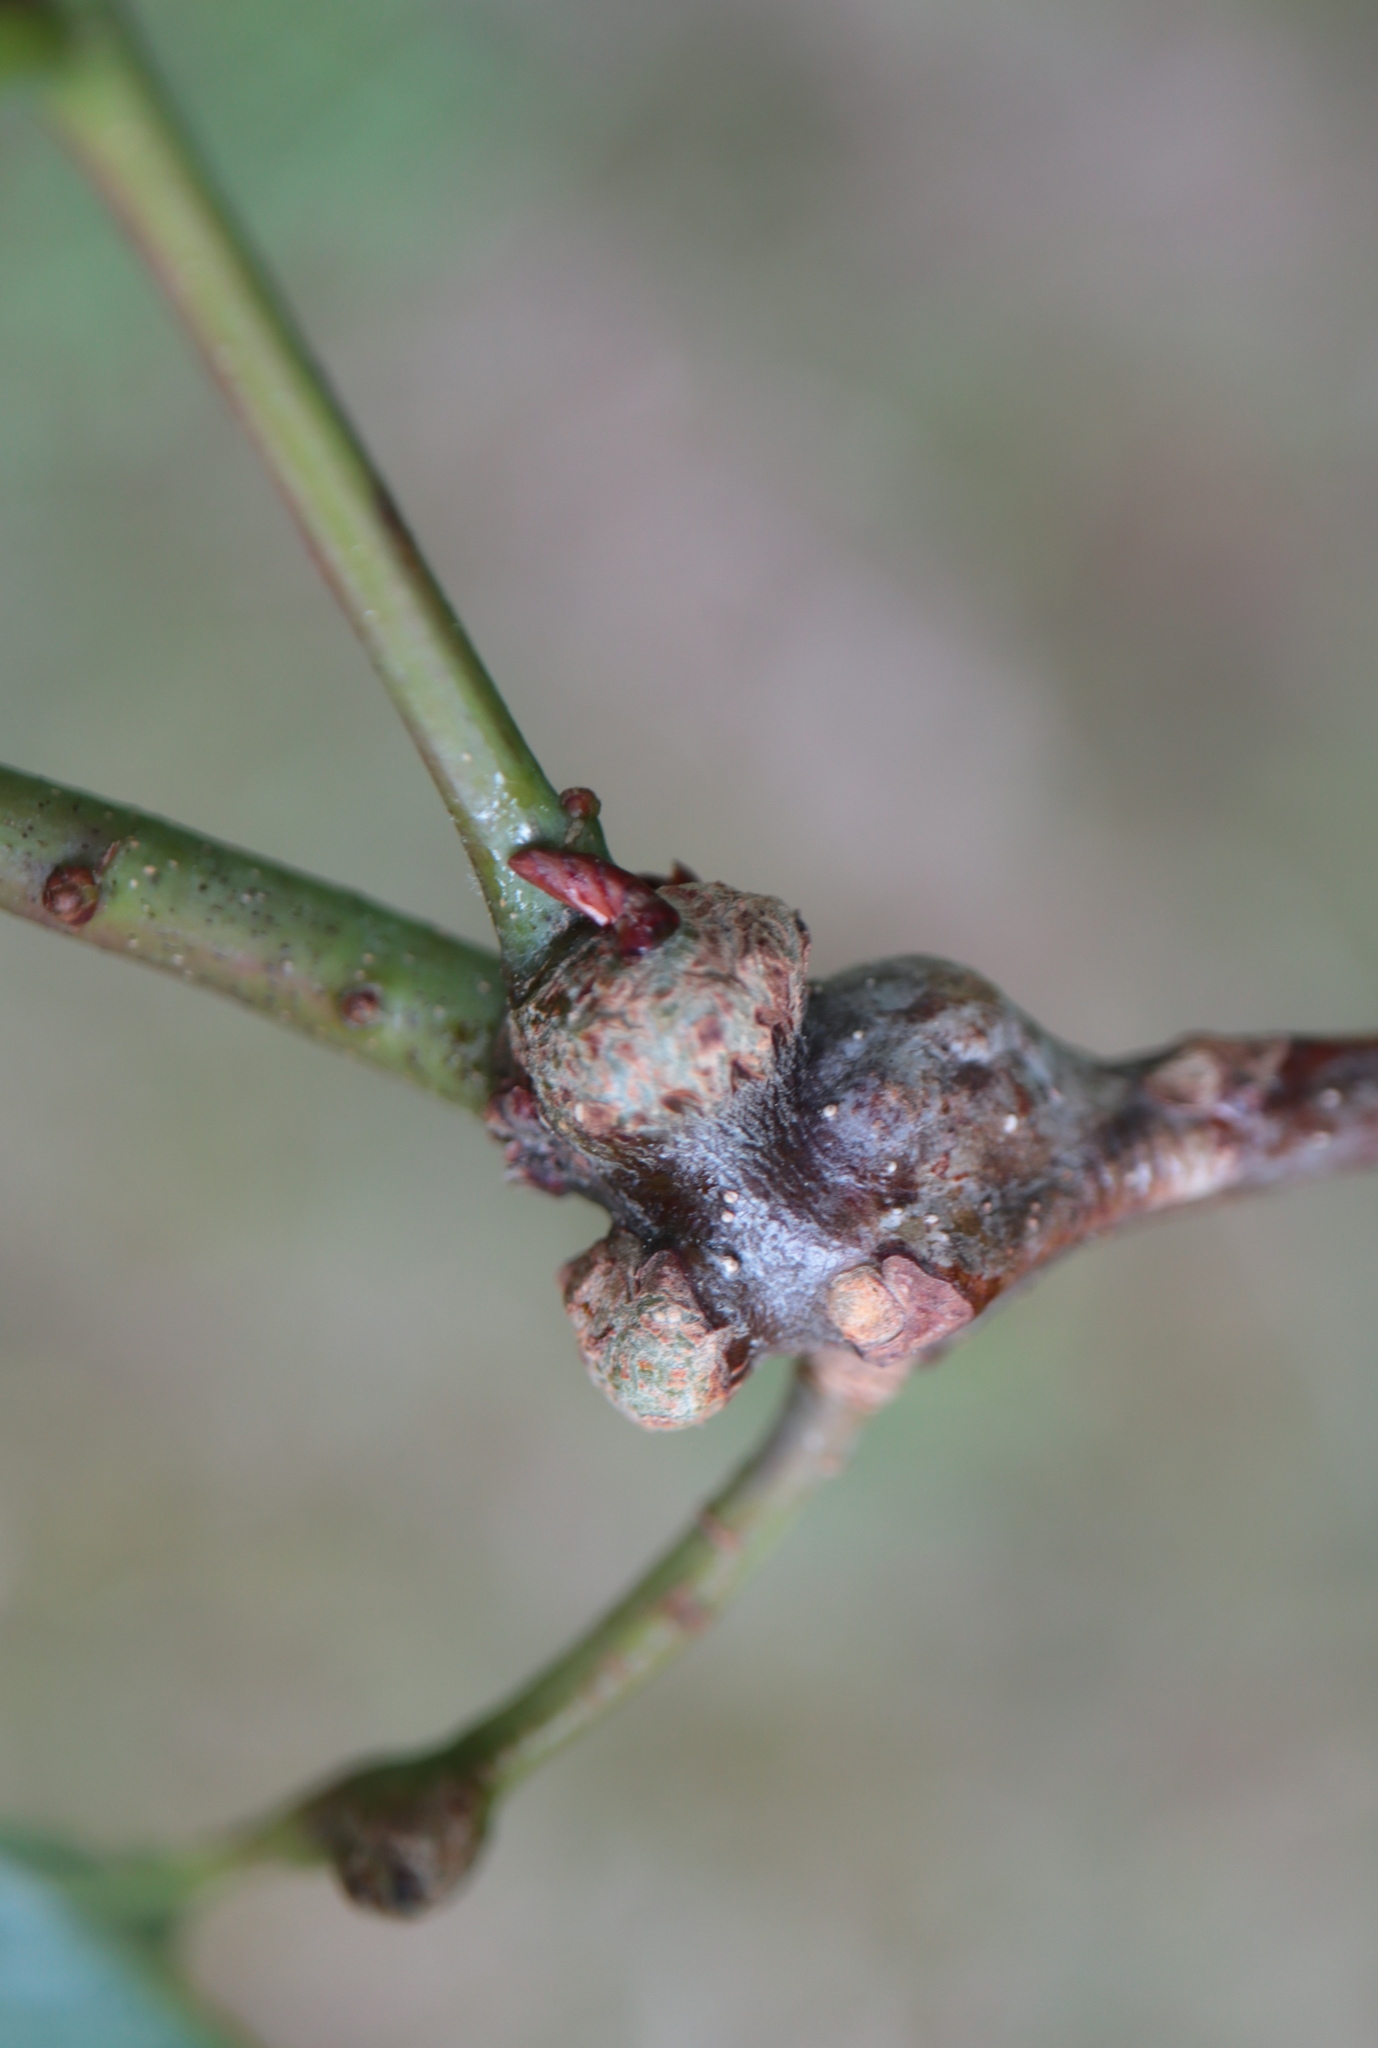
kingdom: Animalia
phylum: Arthropoda
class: Insecta
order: Hymenoptera
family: Cynipidae
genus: Loxaulus
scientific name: Loxaulus
